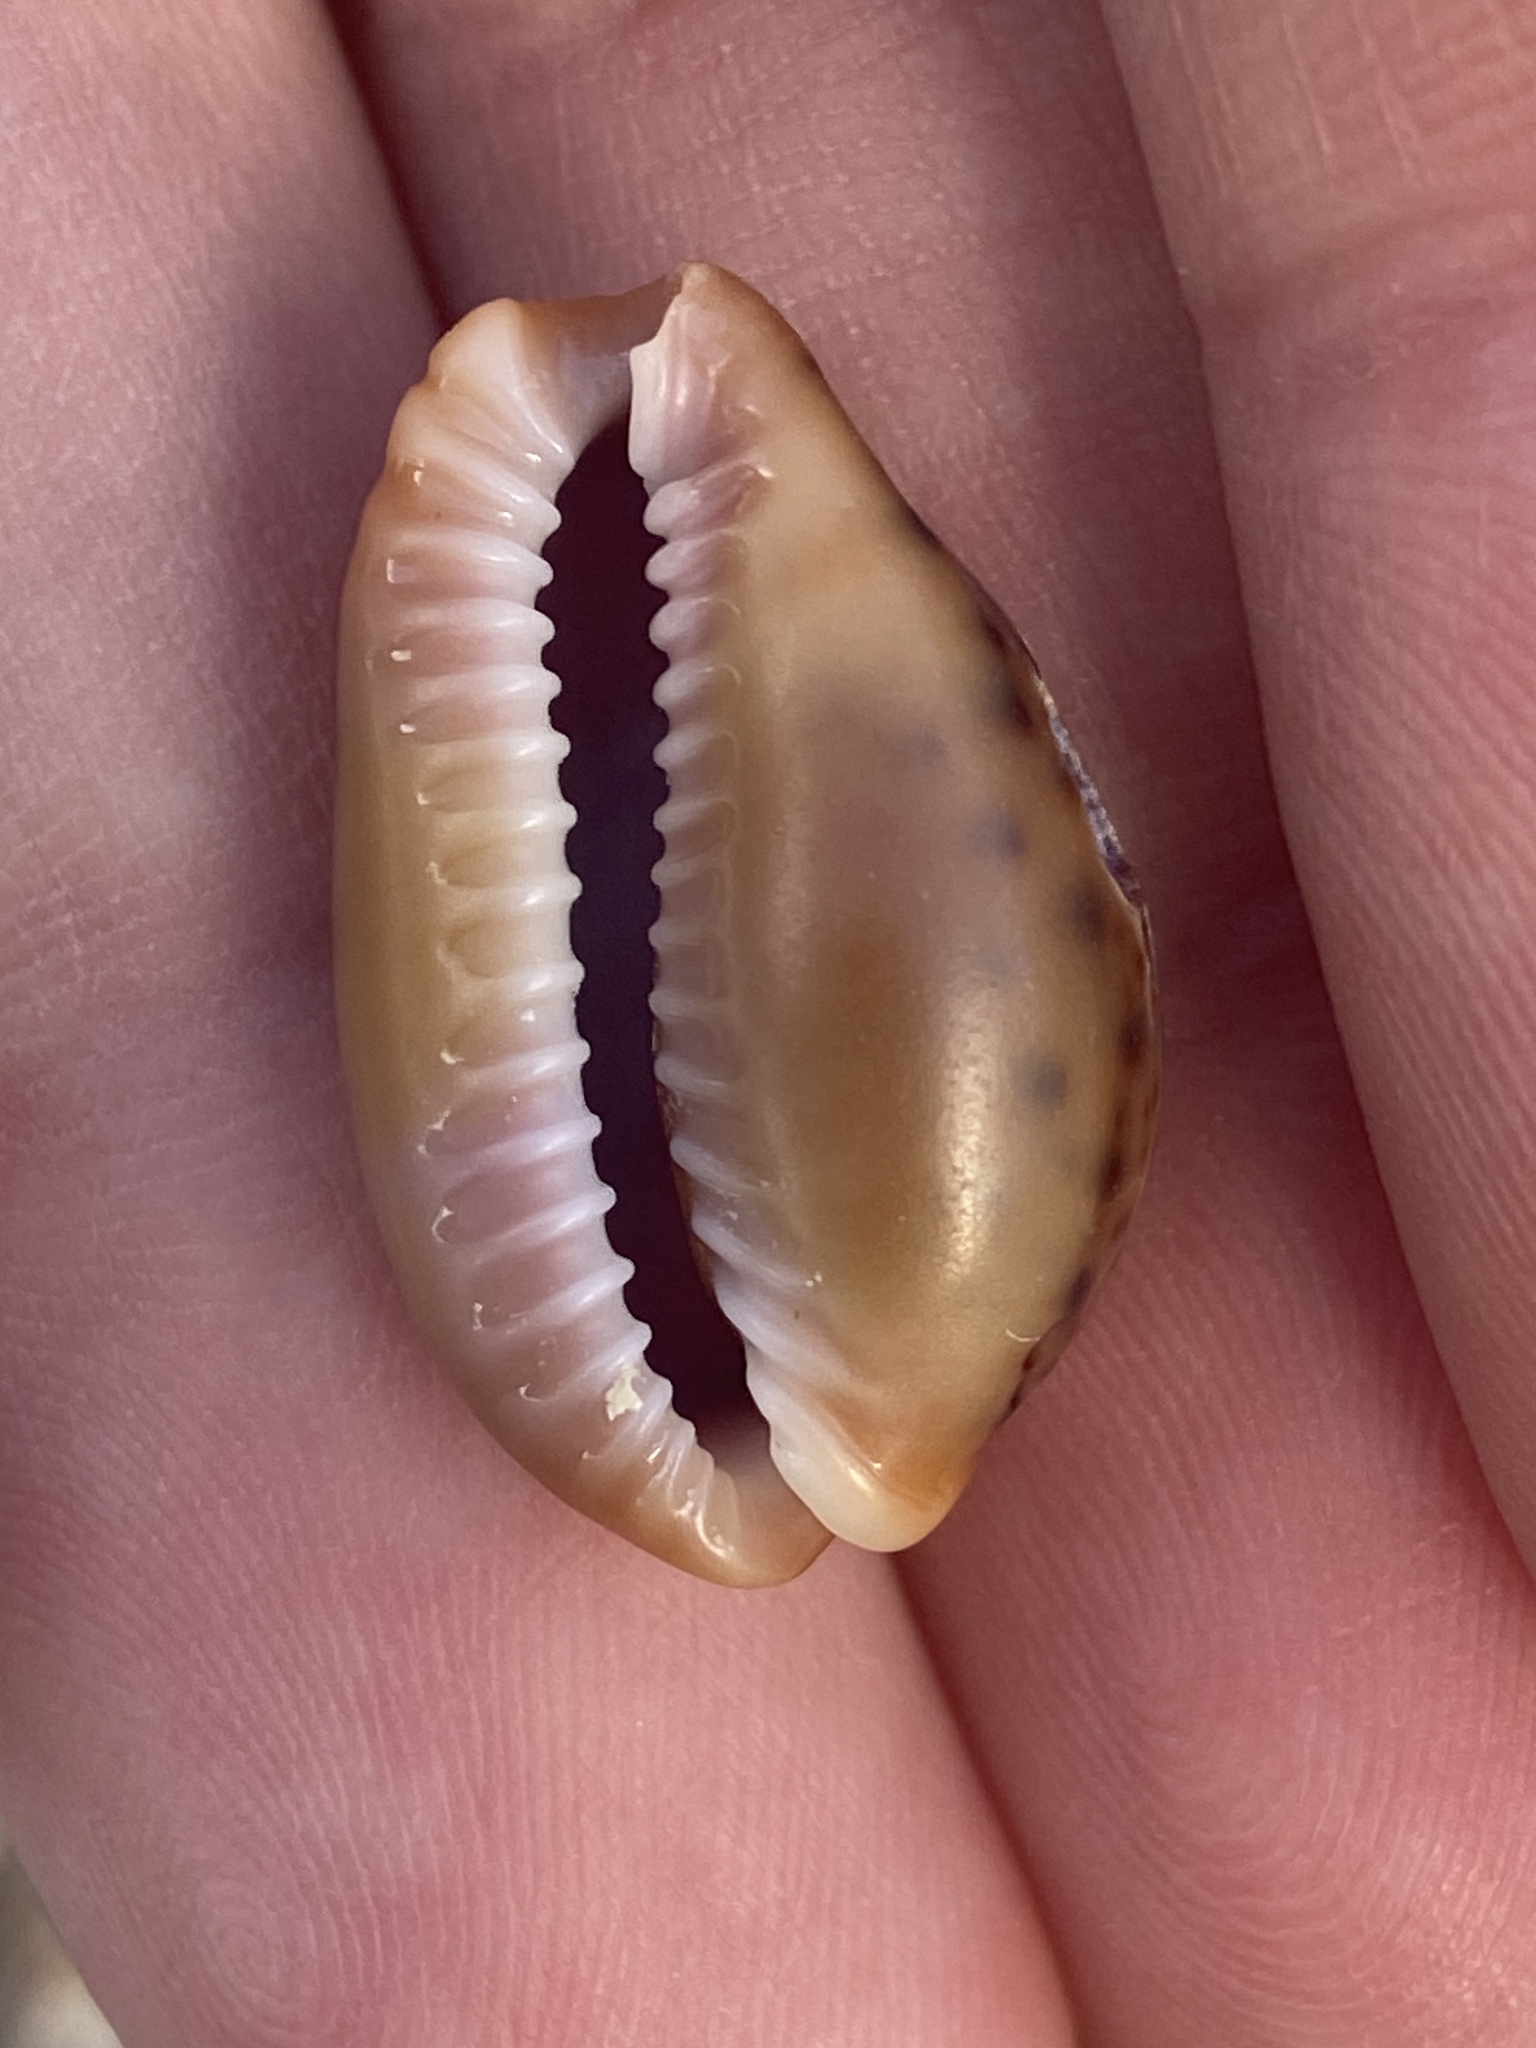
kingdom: Animalia
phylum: Mollusca
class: Gastropoda
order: Littorinimorpha
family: Cypraeidae
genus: Naria
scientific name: Naria spurca
